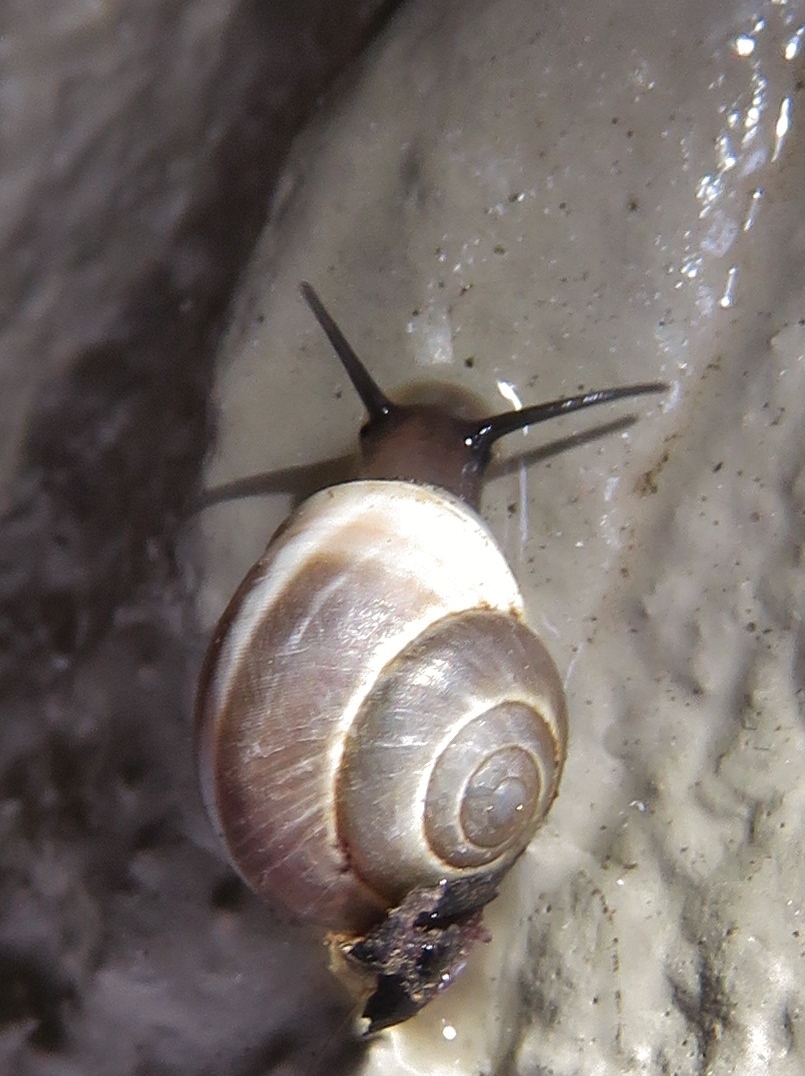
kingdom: Animalia
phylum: Mollusca
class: Gastropoda
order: Cycloneritida
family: Helicinidae
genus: Helicina
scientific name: Helicina orbiculata
